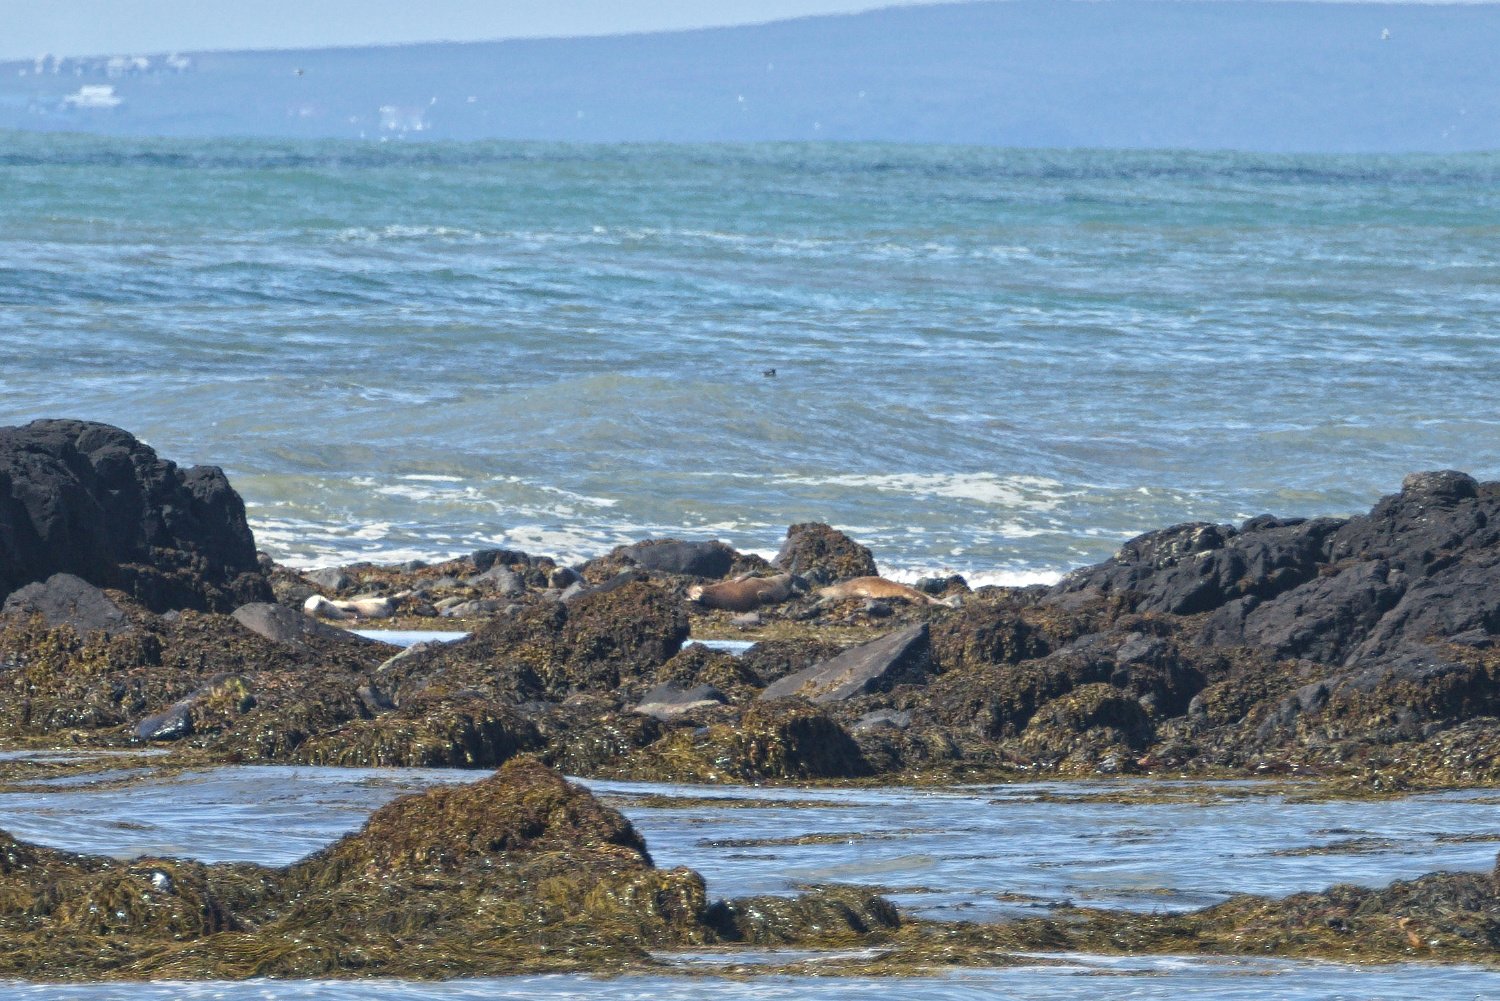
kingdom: Animalia
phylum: Chordata
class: Mammalia
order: Carnivora
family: Phocidae
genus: Phoca
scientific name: Phoca vitulina
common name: Harbor seal
